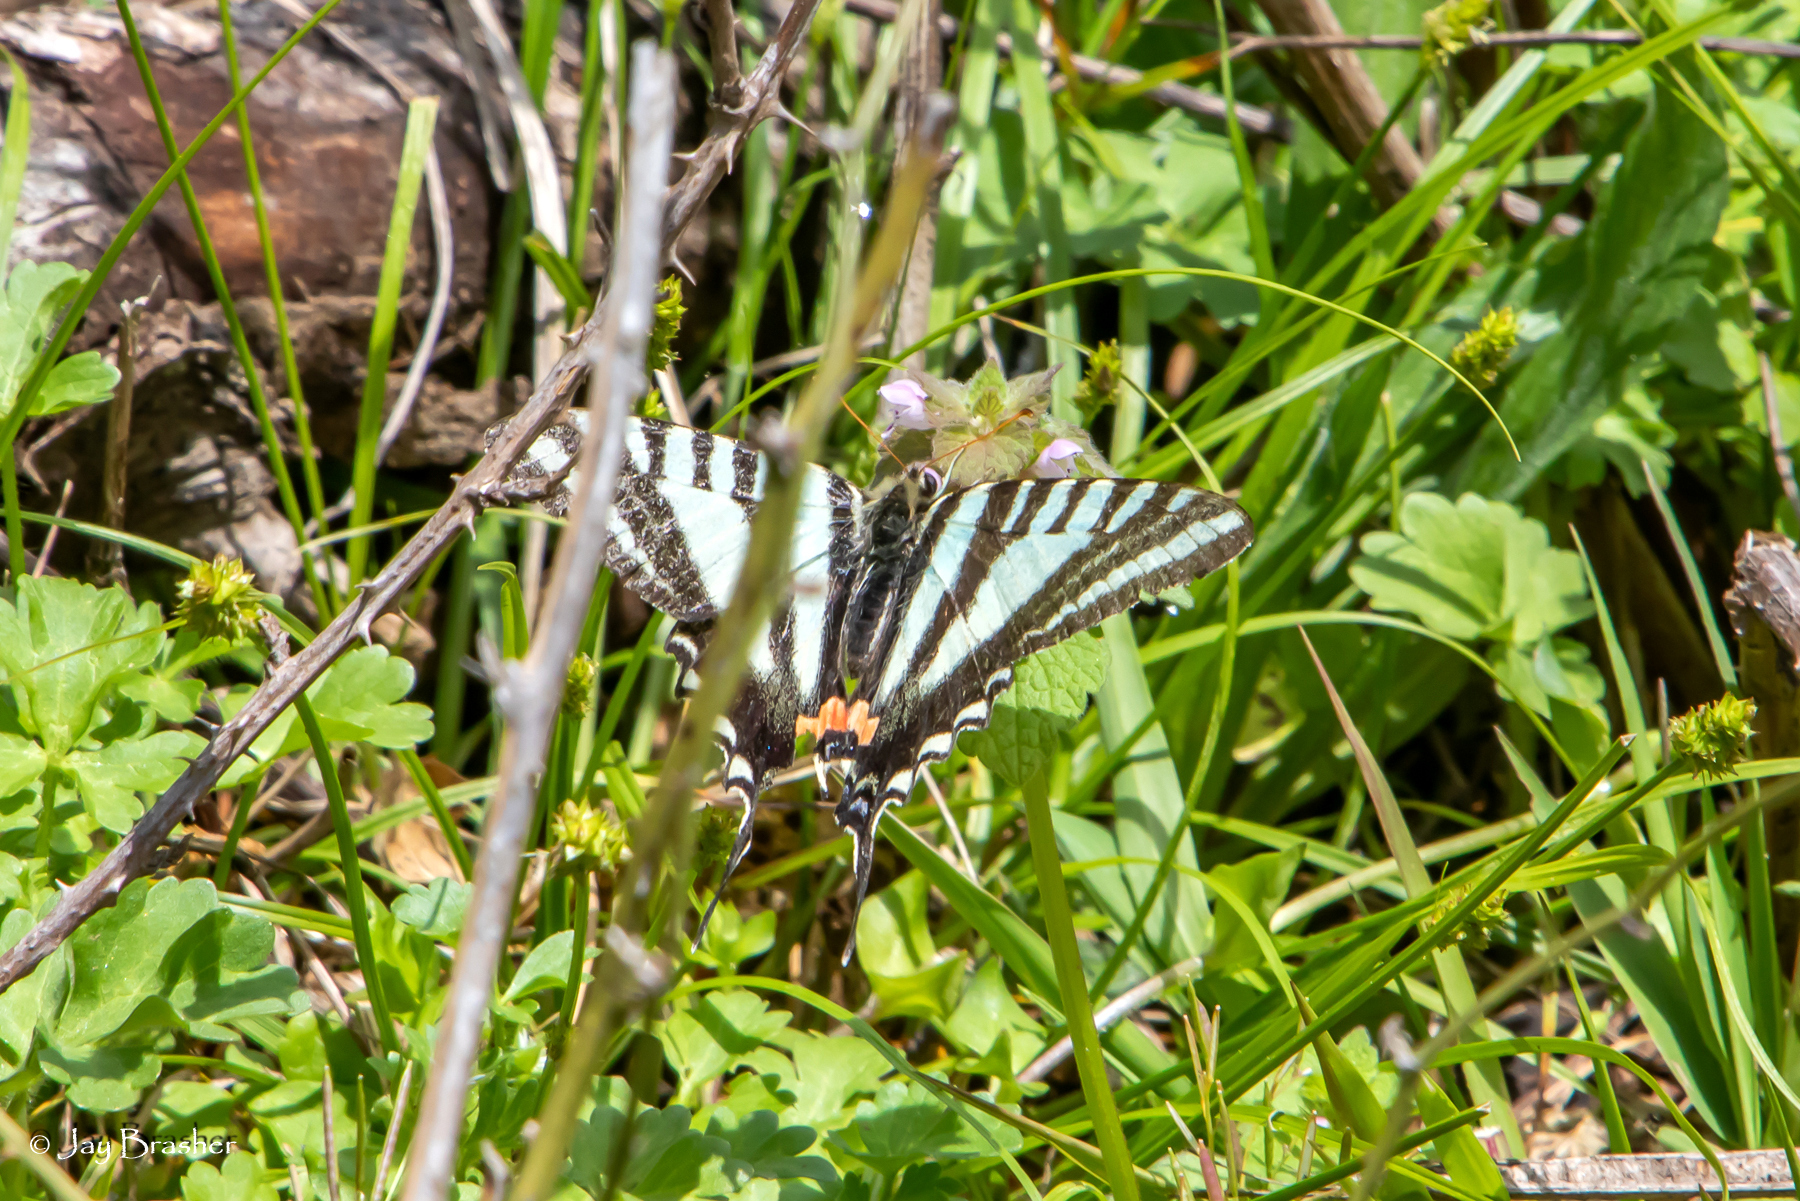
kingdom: Animalia
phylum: Arthropoda
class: Insecta
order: Lepidoptera
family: Papilionidae
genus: Protographium
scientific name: Protographium marcellus
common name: Zebra swallowtail
